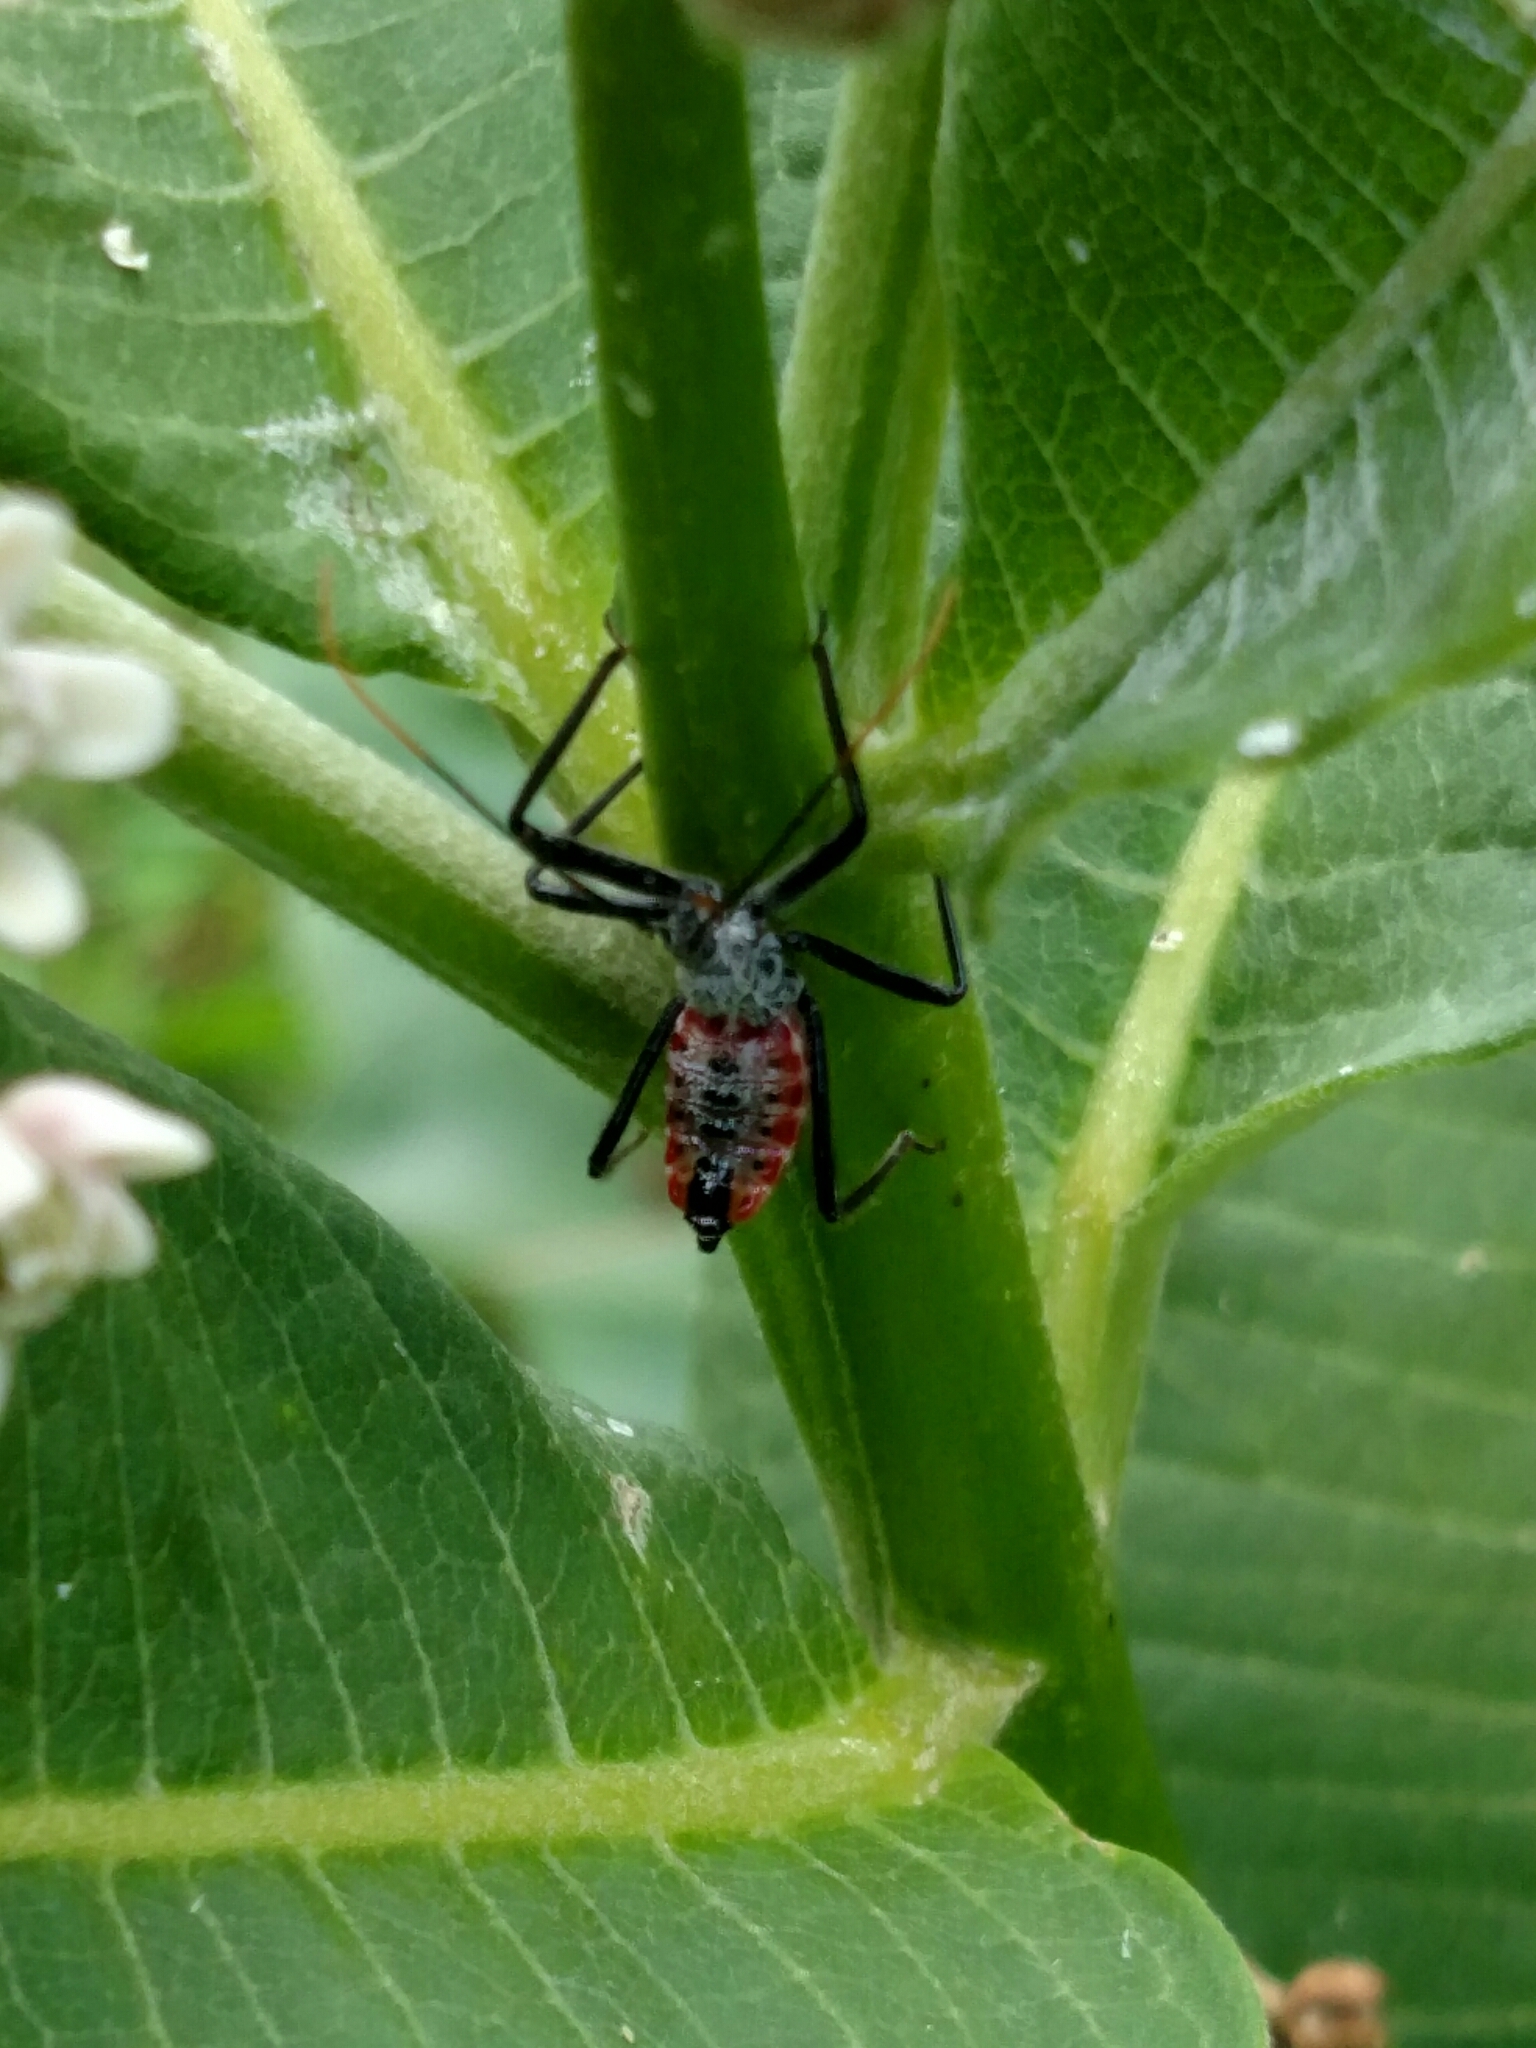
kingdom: Animalia
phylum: Arthropoda
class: Insecta
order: Hemiptera
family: Reduviidae
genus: Arilus
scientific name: Arilus cristatus
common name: North american wheel bug
